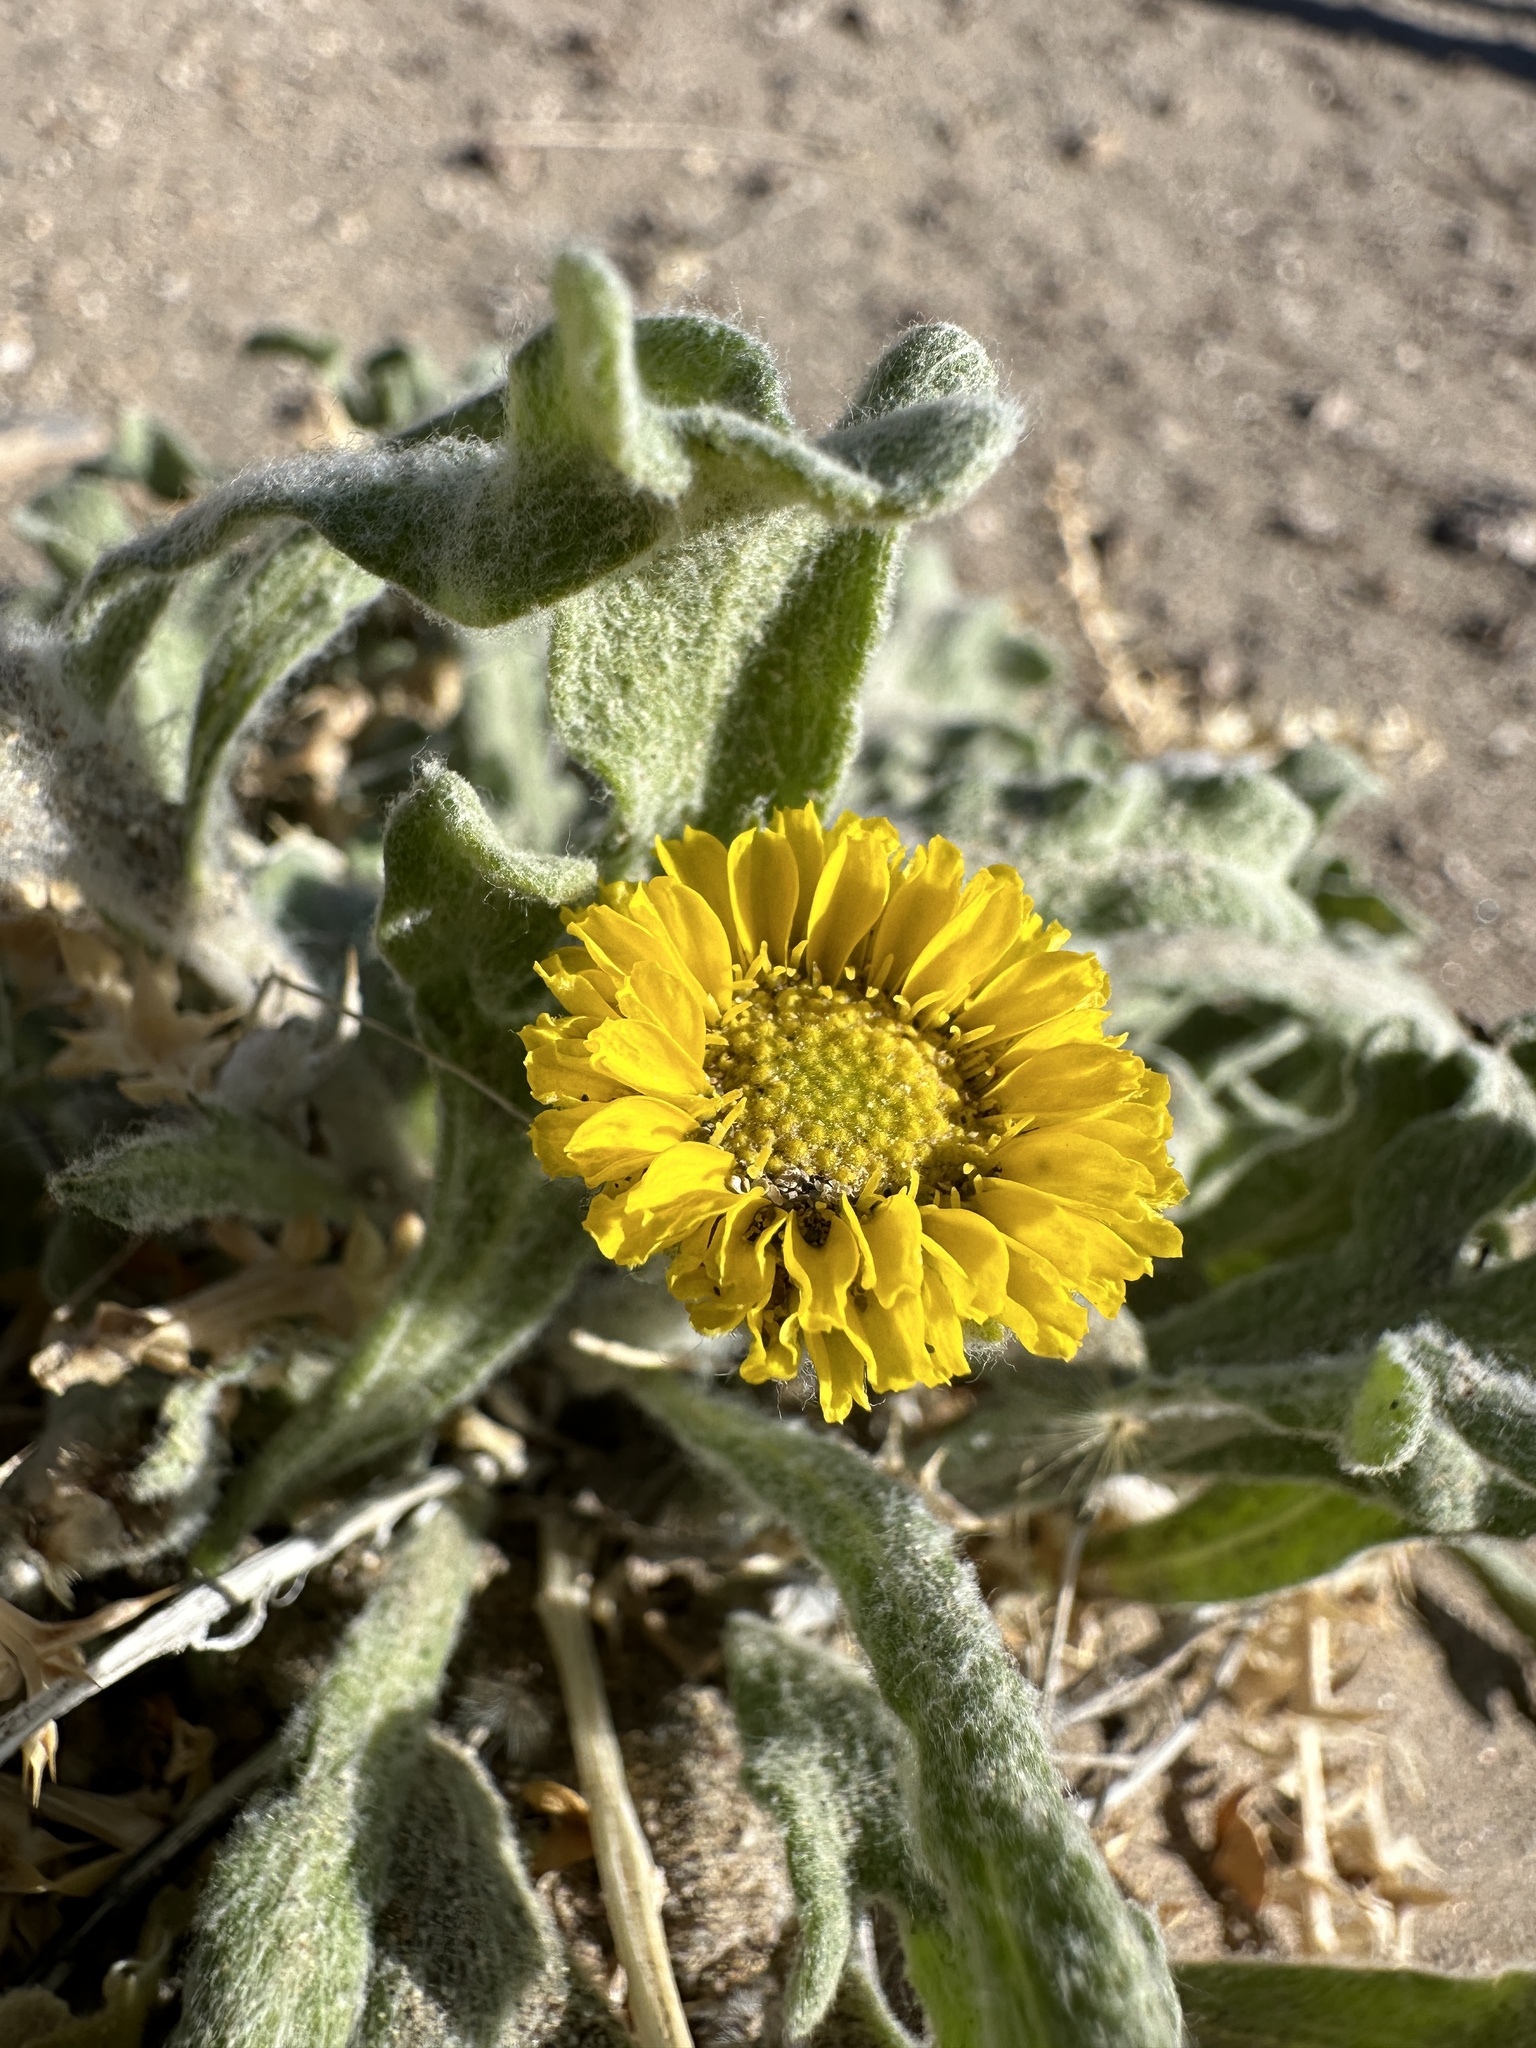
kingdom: Plantae
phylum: Tracheophyta
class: Magnoliopsida
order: Asterales
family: Asteraceae
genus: Baileya
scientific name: Baileya pleniradiata
